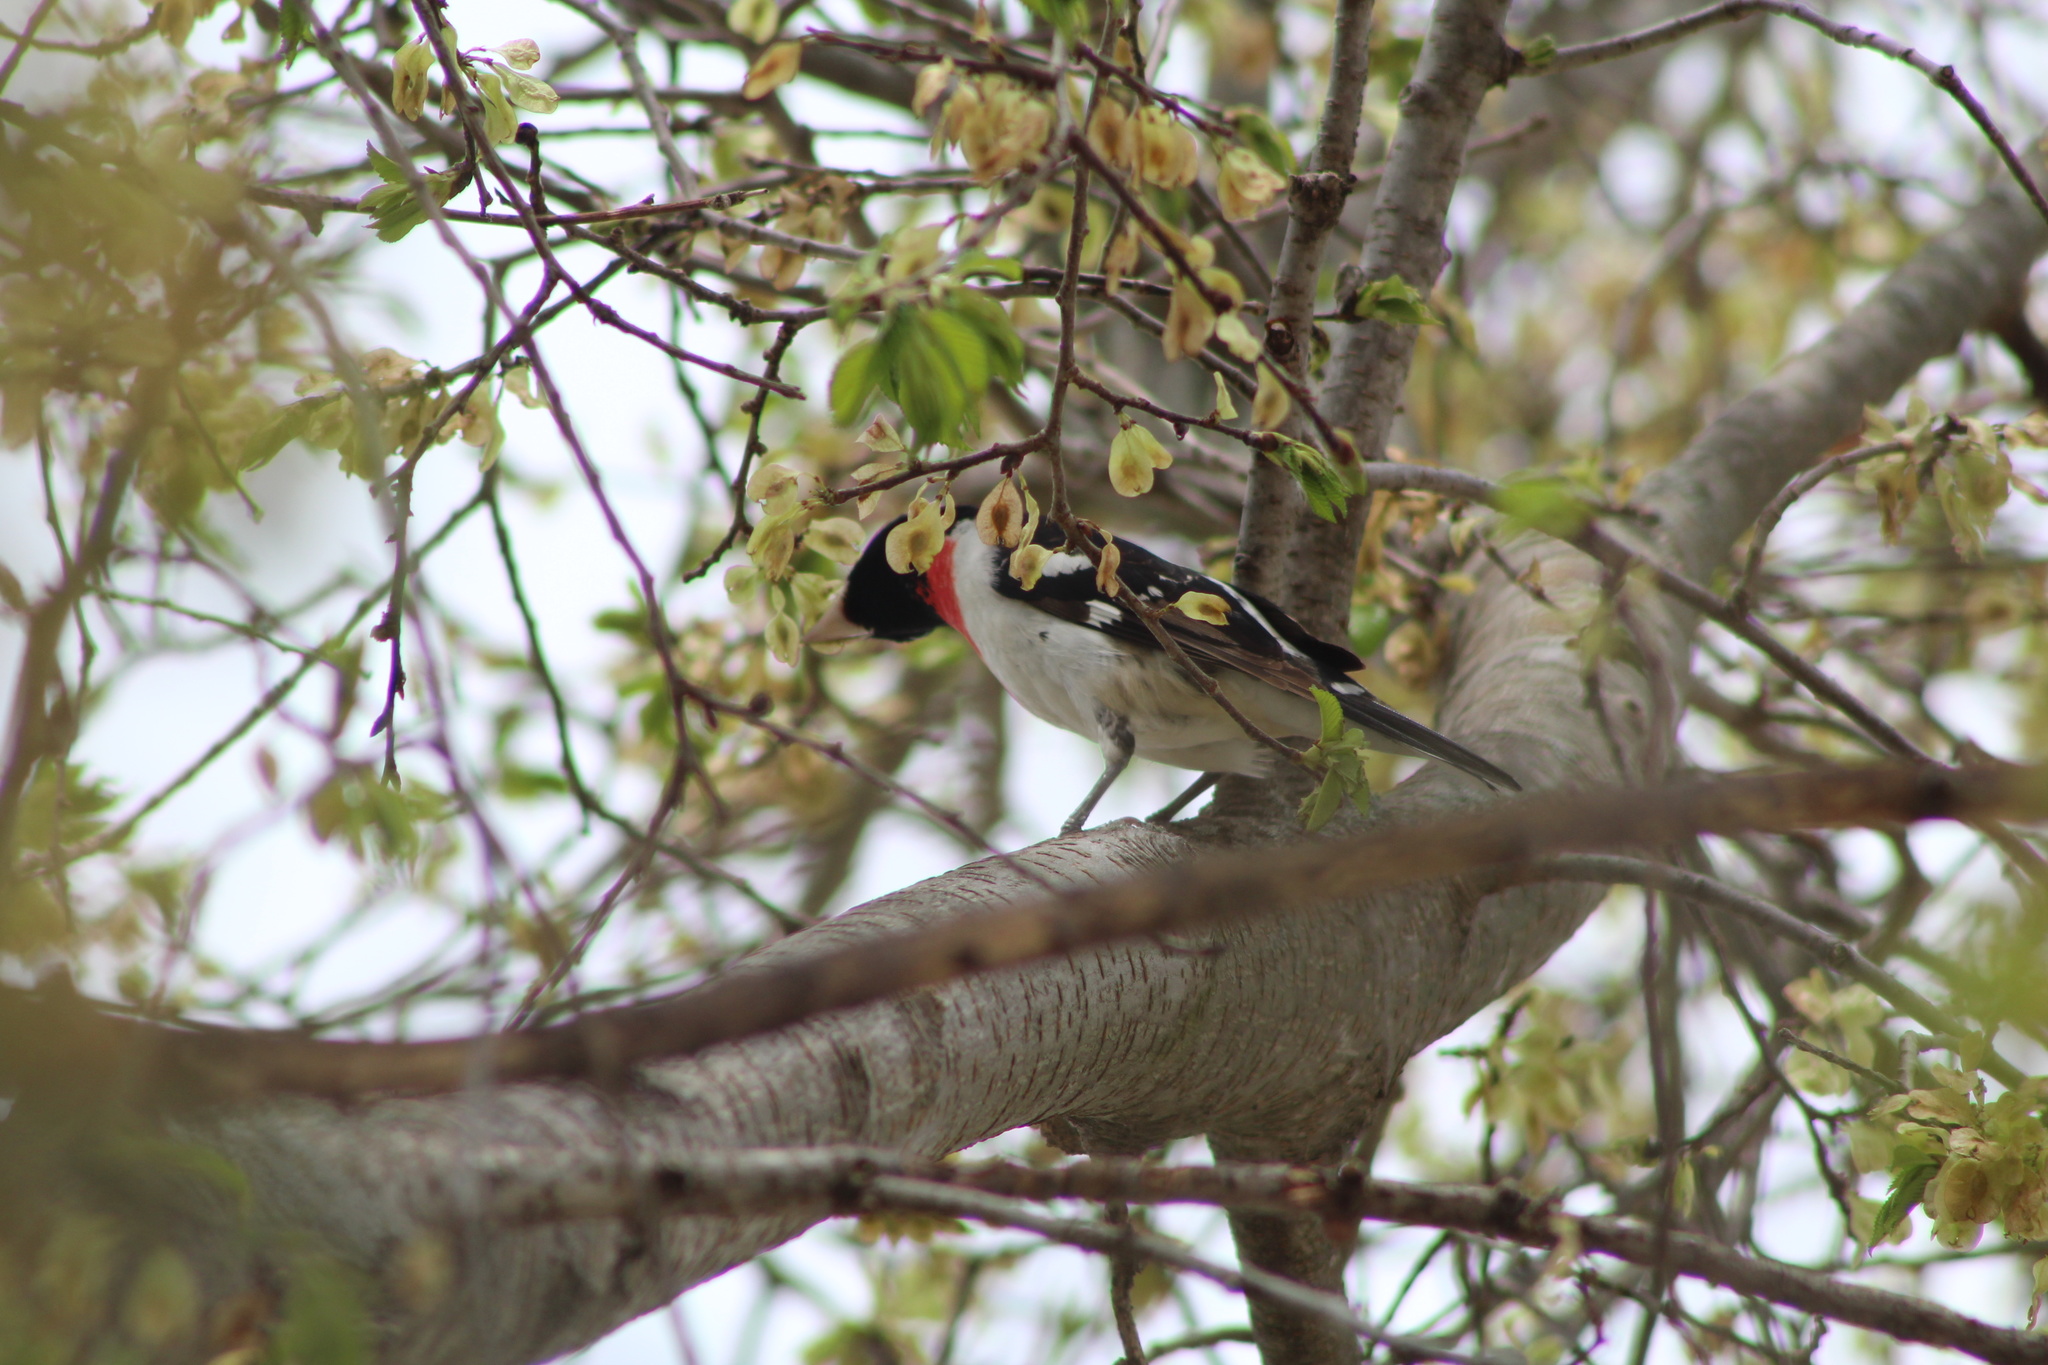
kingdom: Animalia
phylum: Chordata
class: Aves
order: Passeriformes
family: Cardinalidae
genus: Pheucticus
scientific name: Pheucticus ludovicianus
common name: Rose-breasted grosbeak
